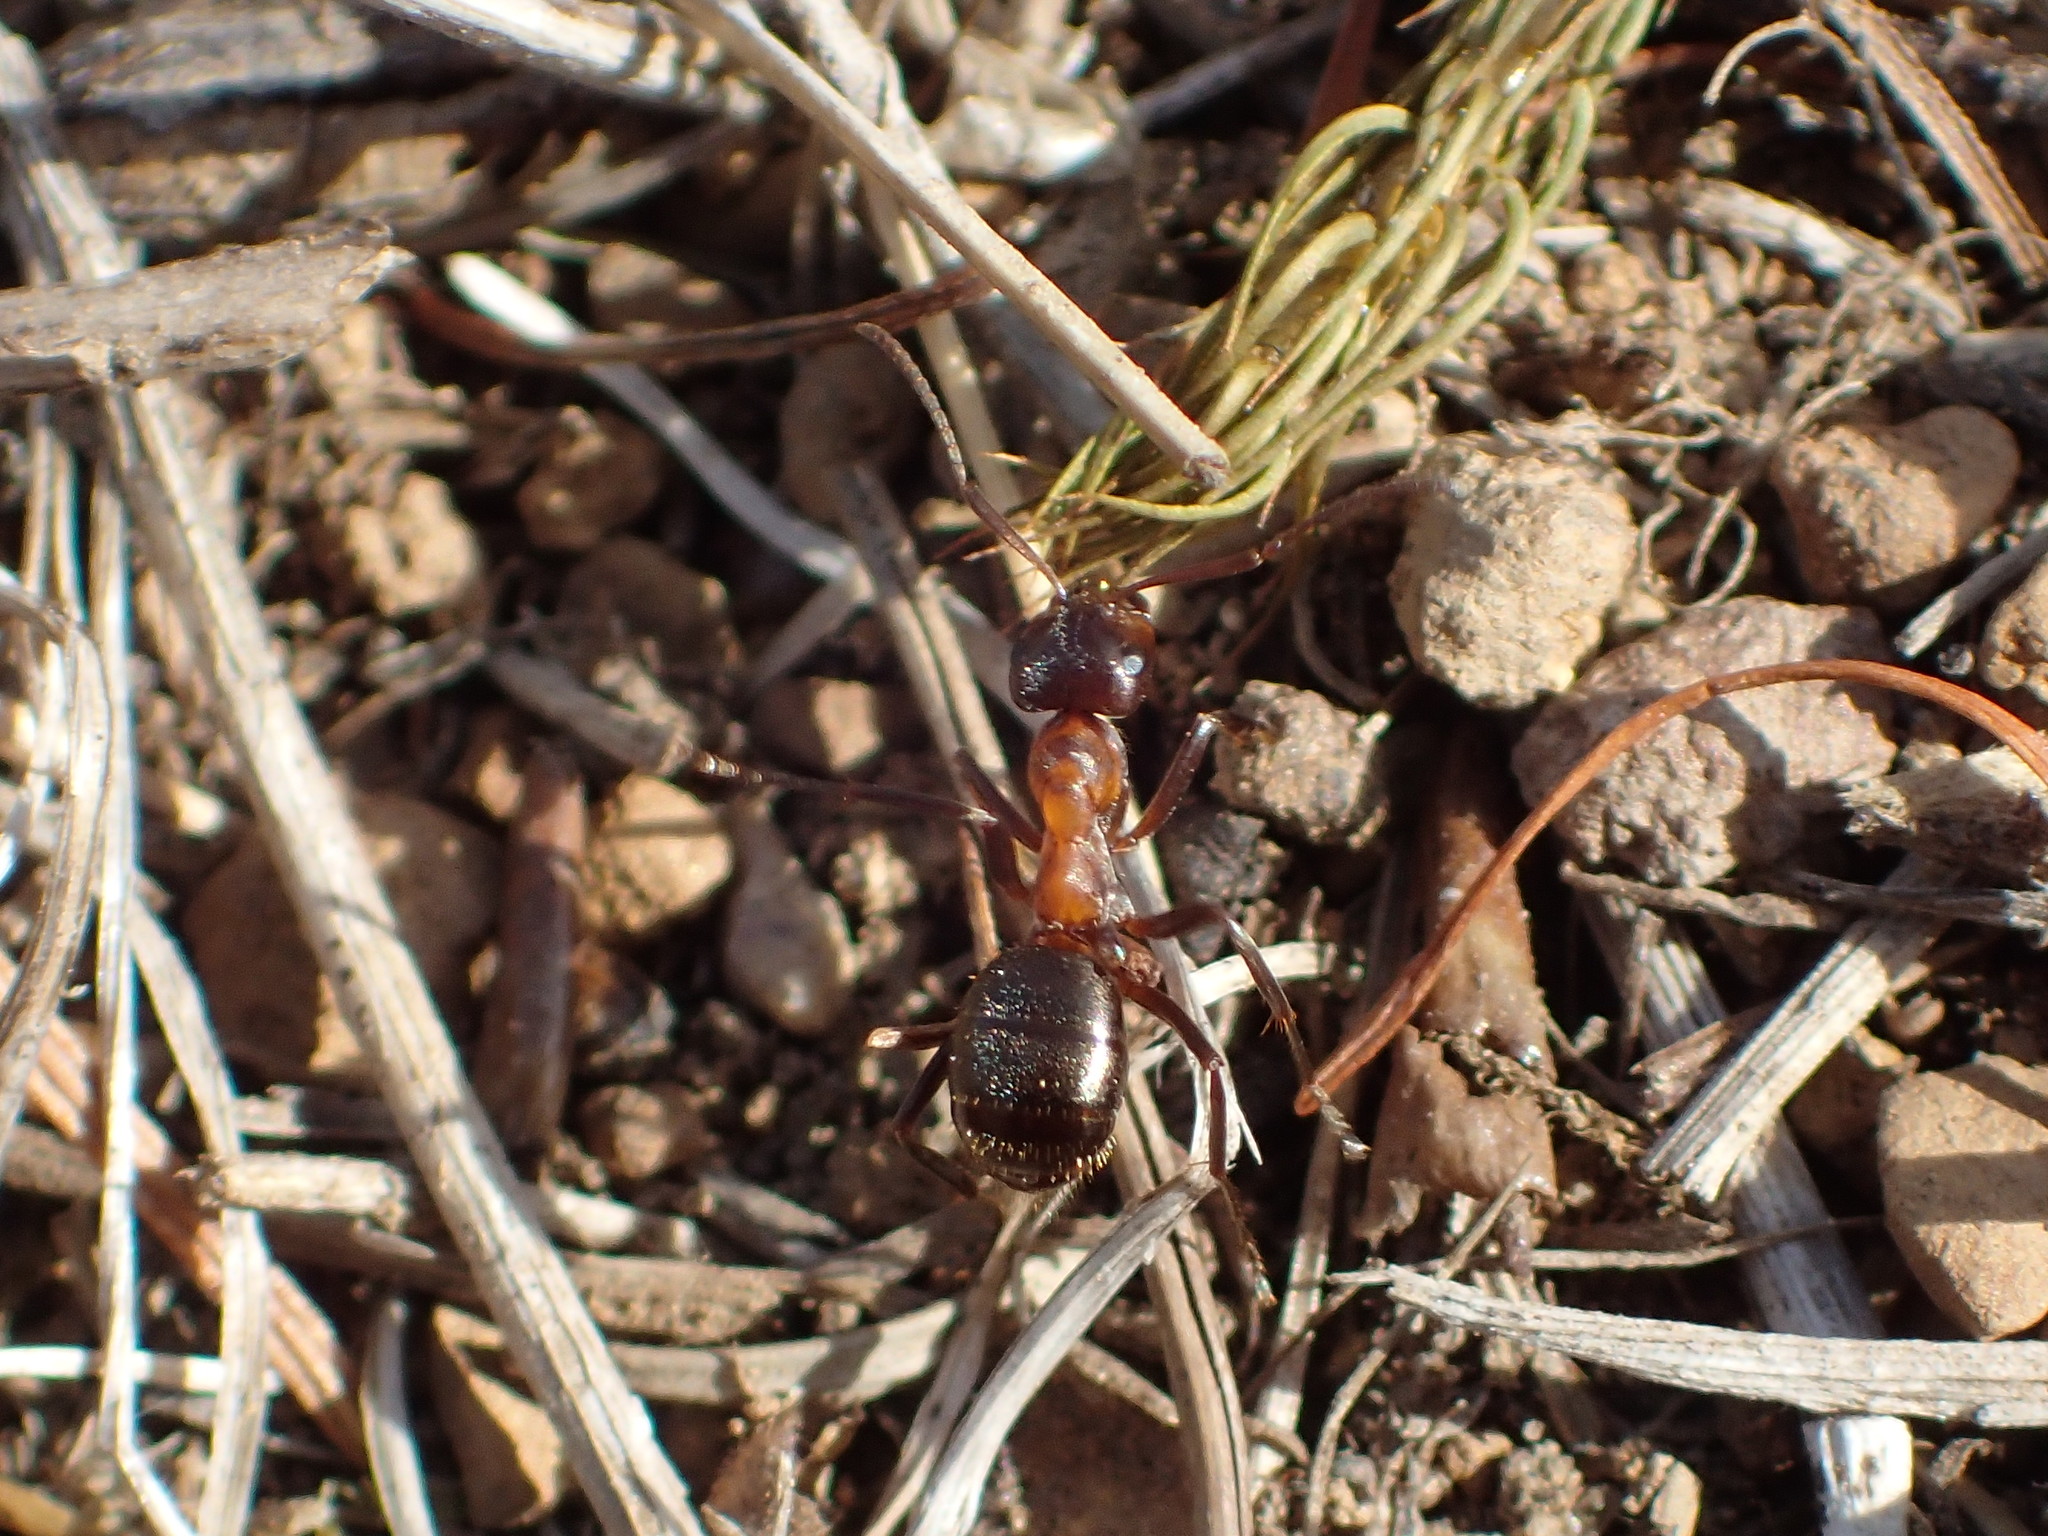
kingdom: Animalia
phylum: Arthropoda
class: Insecta
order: Hymenoptera
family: Formicidae
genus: Formica
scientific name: Formica ulkei
